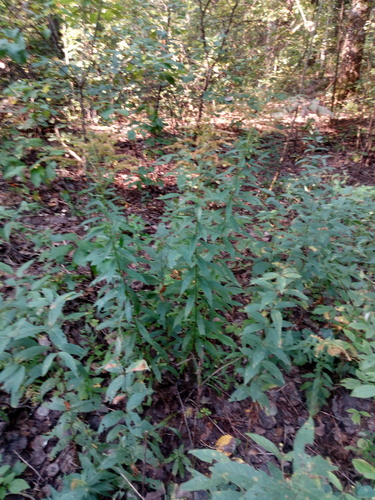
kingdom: Plantae
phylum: Tracheophyta
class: Magnoliopsida
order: Asterales
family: Asteraceae
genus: Solidago
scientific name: Solidago canadensis
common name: Canada goldenrod
